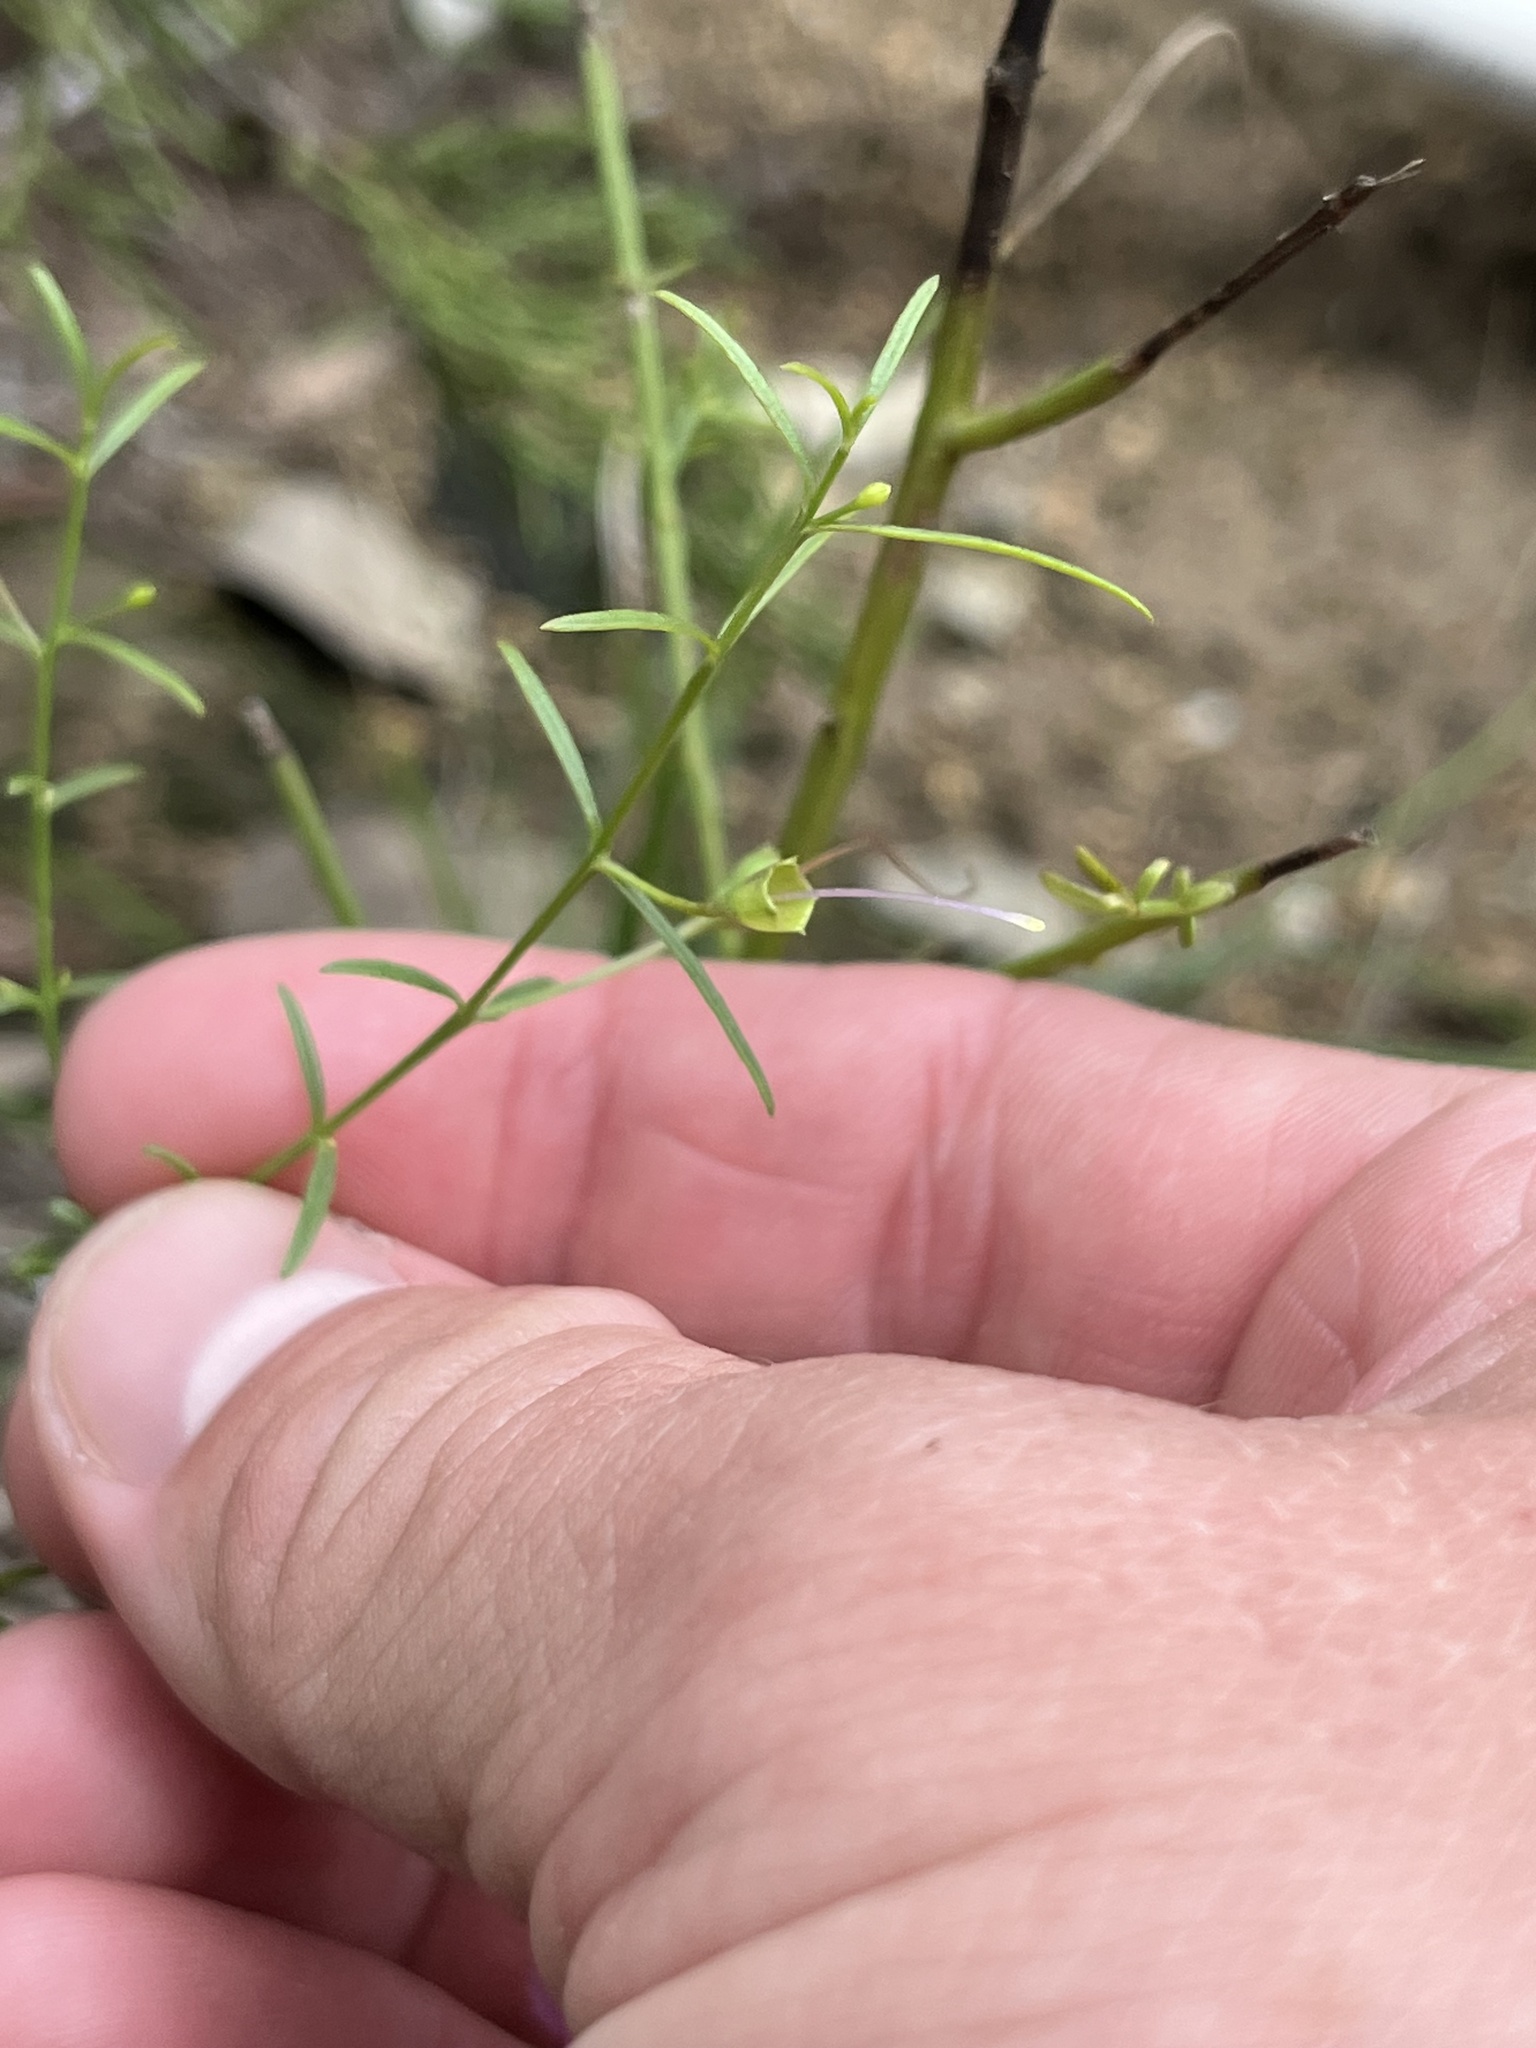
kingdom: Plantae
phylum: Tracheophyta
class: Magnoliopsida
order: Lamiales
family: Orobanchaceae
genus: Agalinis
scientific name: Agalinis edwardsiana
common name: Plateau-gerardia
